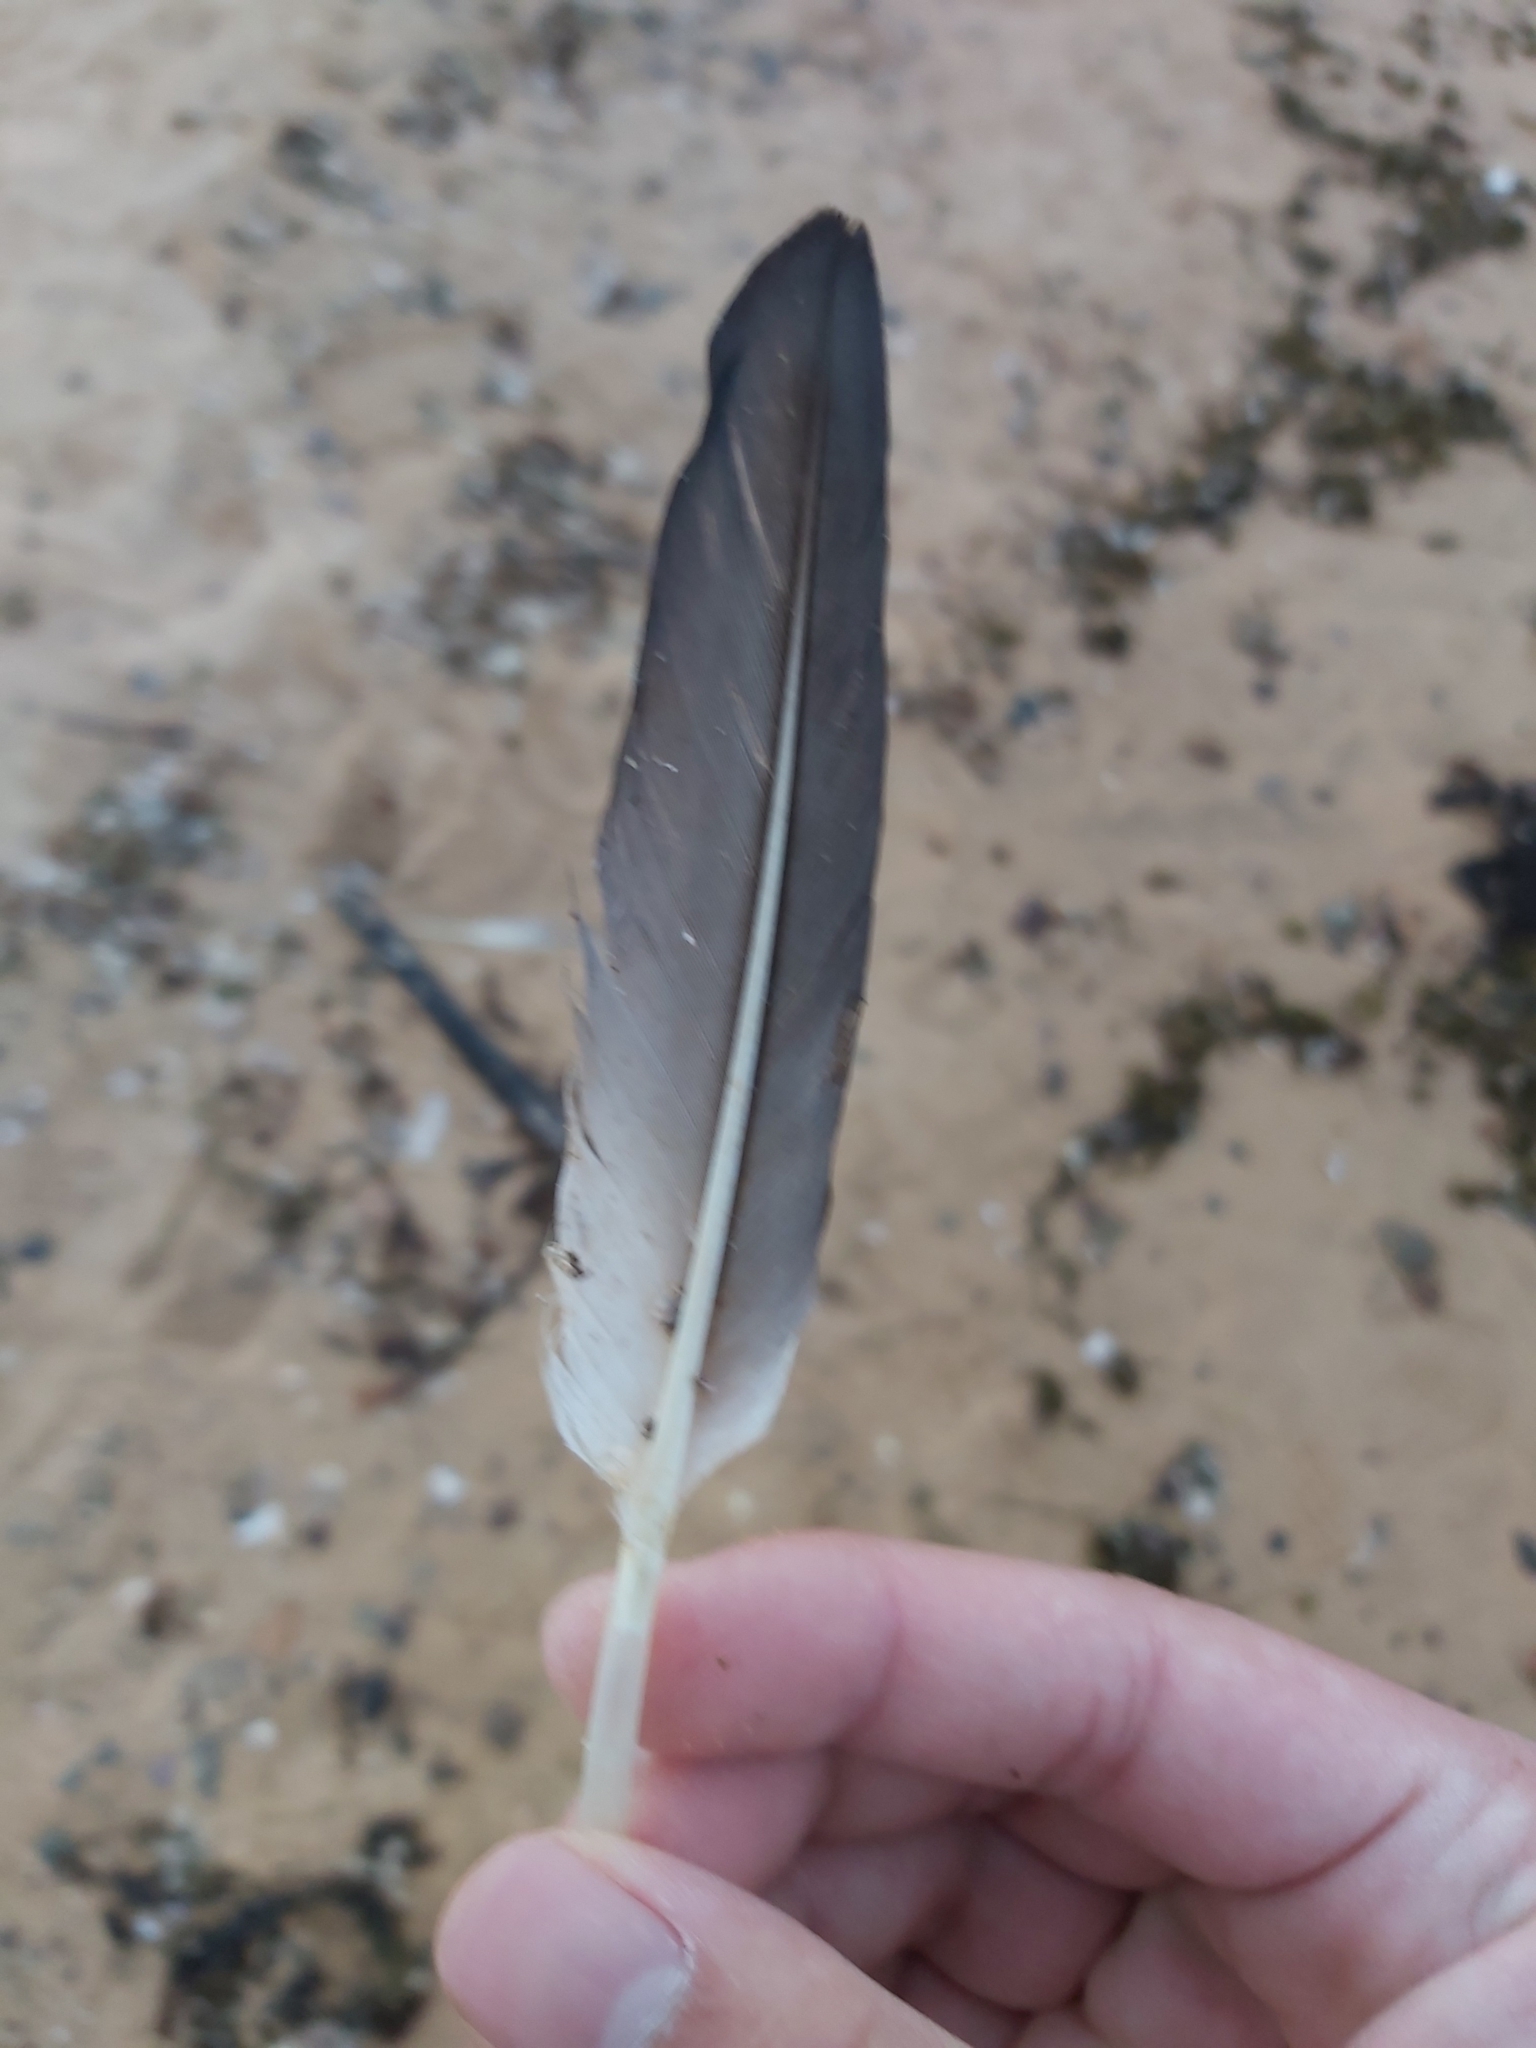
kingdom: Animalia
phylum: Chordata
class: Aves
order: Suliformes
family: Sulidae
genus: Morus
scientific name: Morus serrator
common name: Australasian gannet
